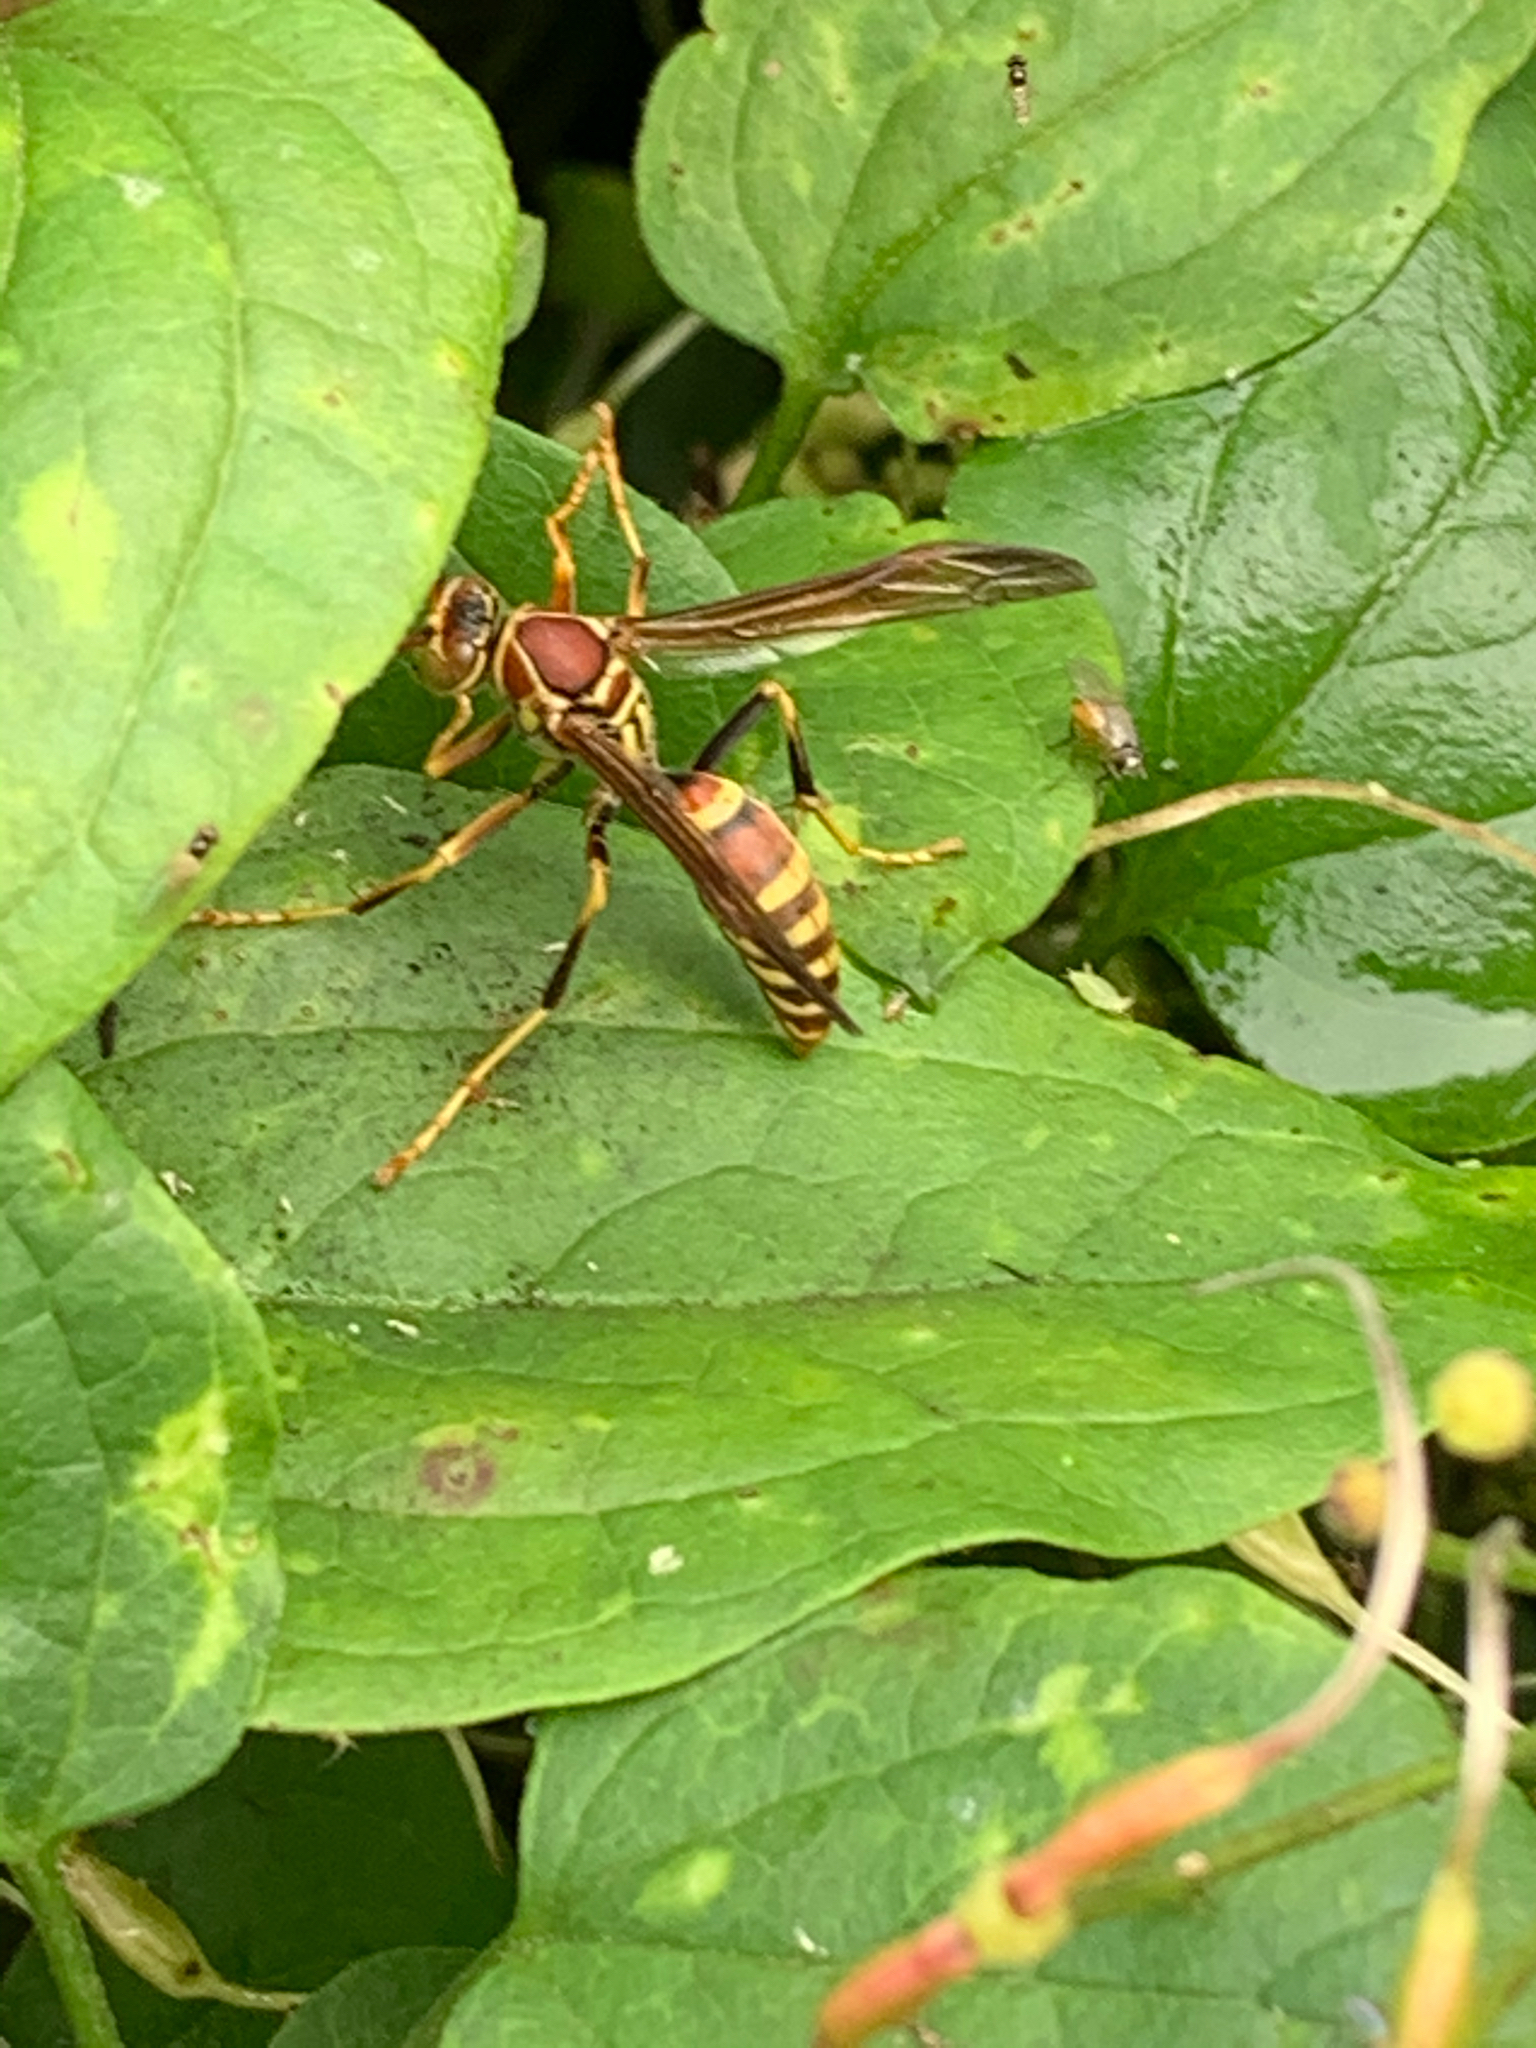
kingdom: Animalia
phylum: Arthropoda
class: Insecta
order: Hymenoptera
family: Eumenidae
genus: Polistes
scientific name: Polistes exclamans
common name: Paper wasp
